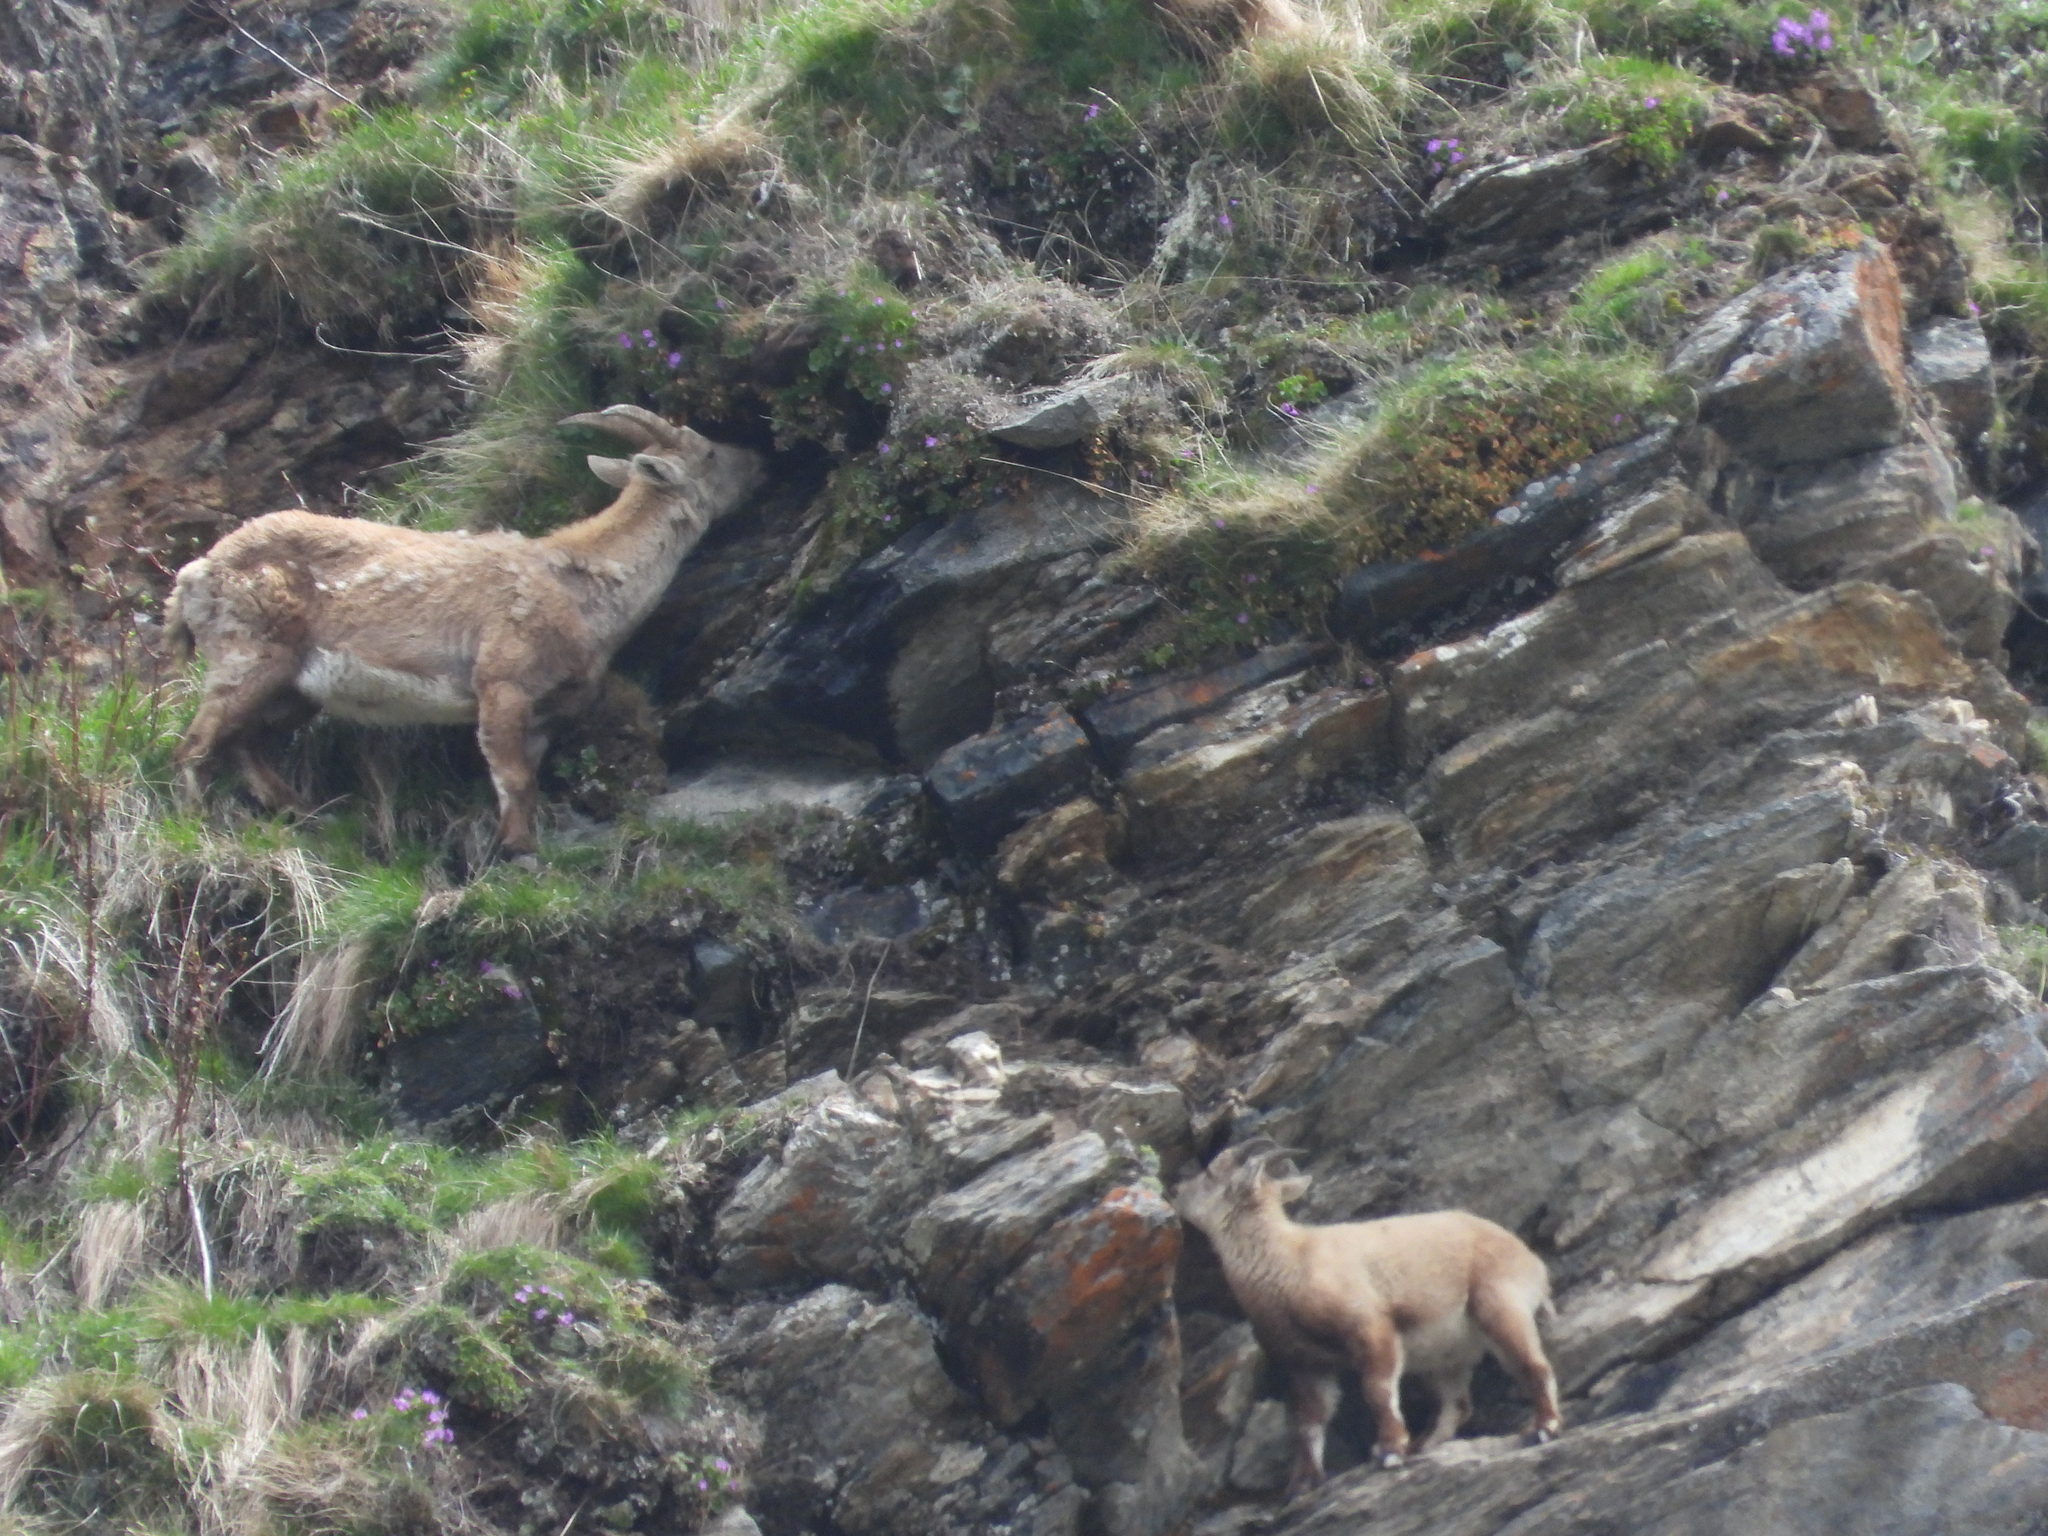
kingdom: Animalia
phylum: Chordata
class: Mammalia
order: Artiodactyla
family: Bovidae
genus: Capra
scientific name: Capra ibex
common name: Alpine ibex
